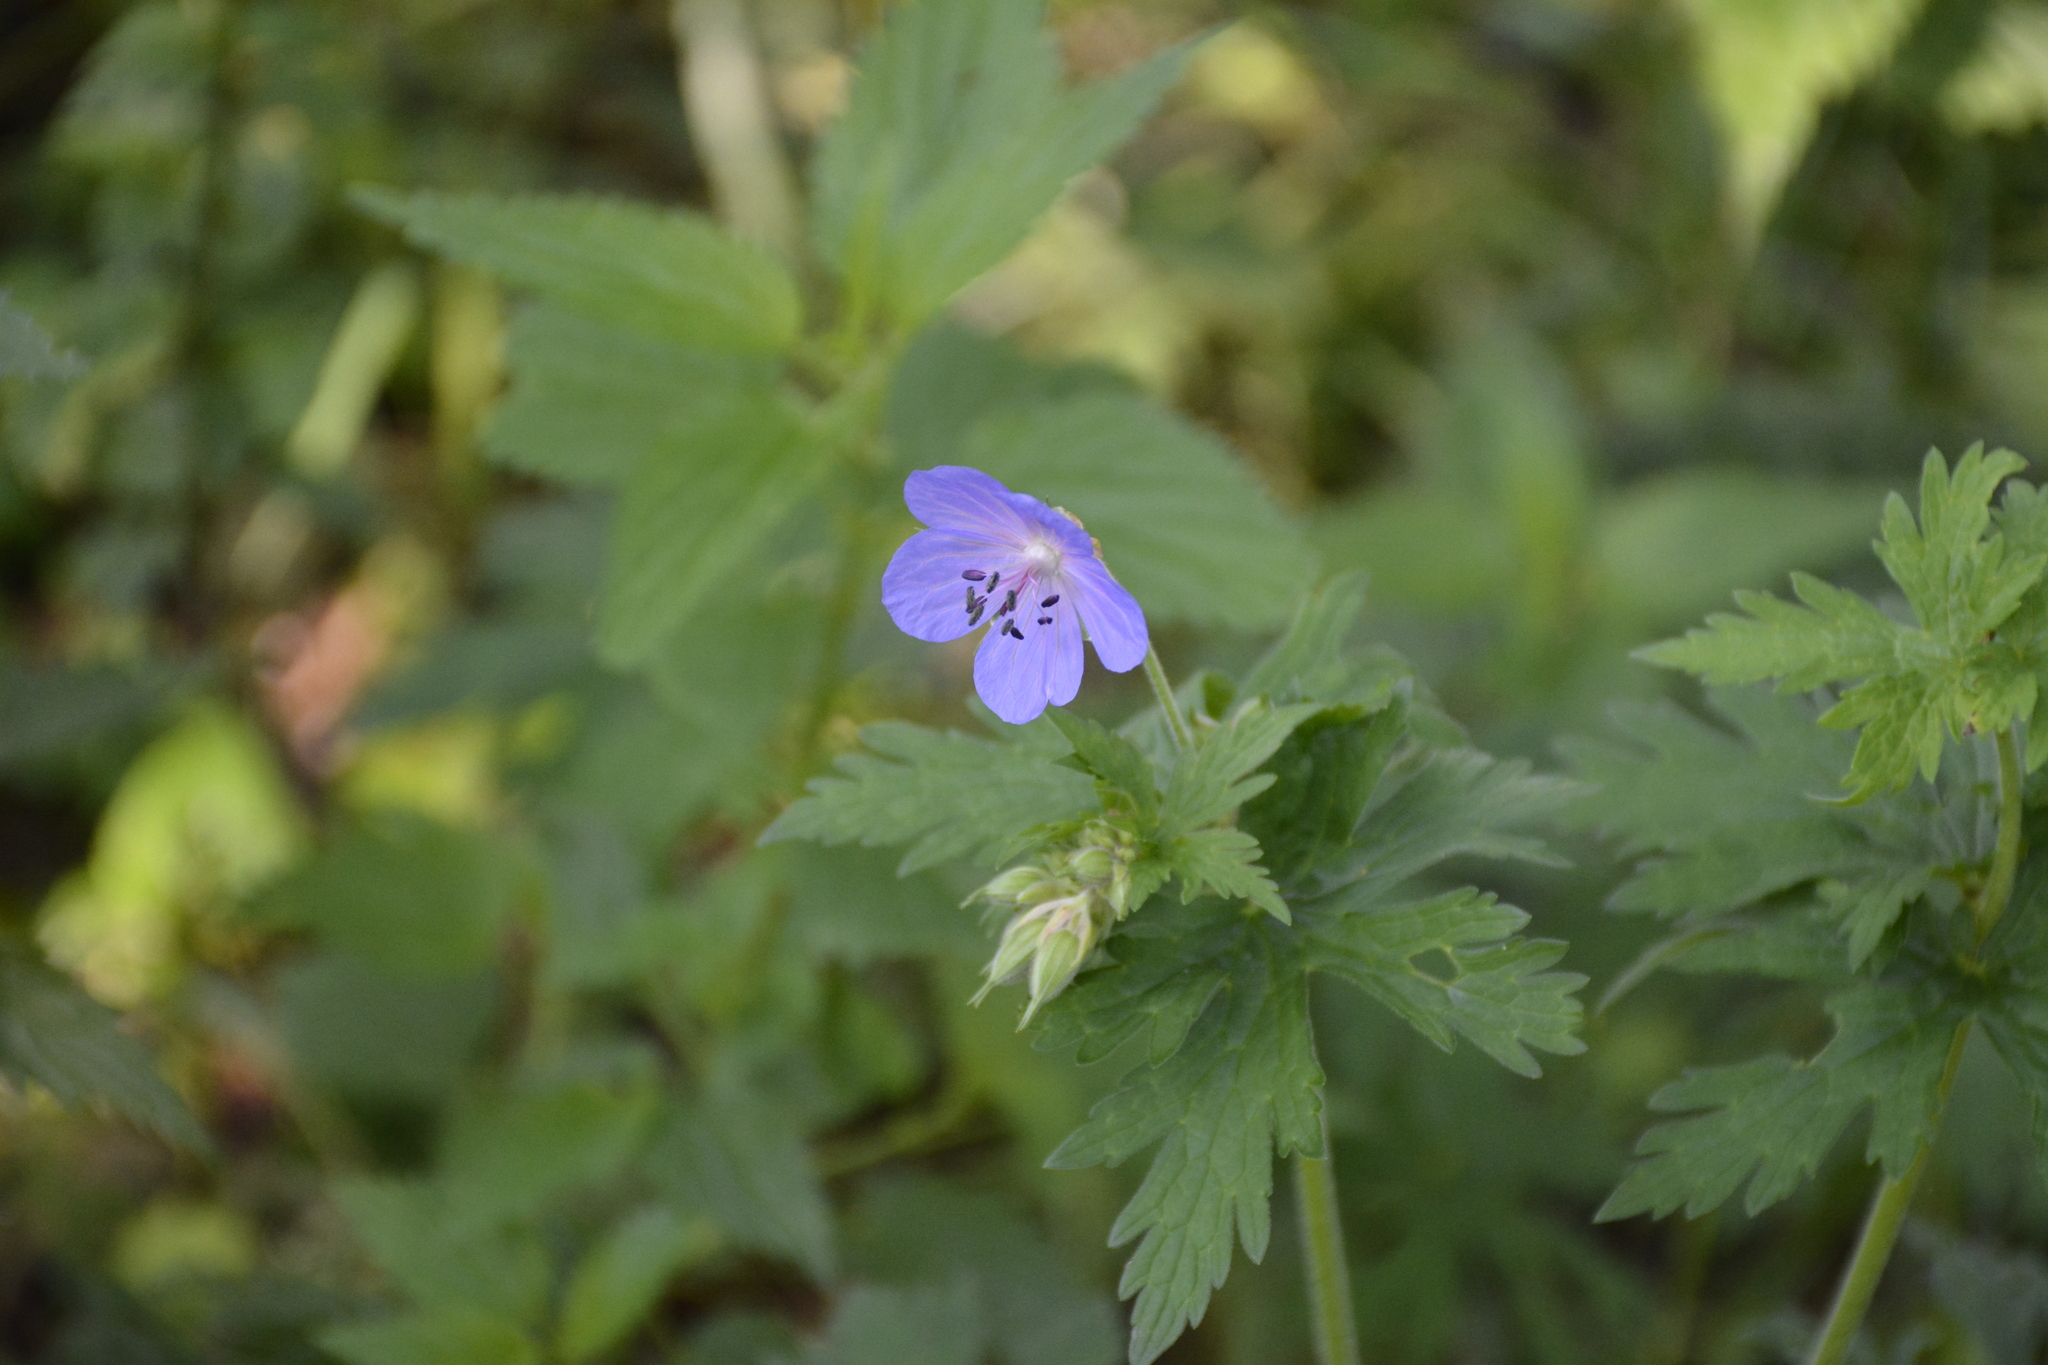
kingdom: Plantae
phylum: Tracheophyta
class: Magnoliopsida
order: Geraniales
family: Geraniaceae
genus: Geranium
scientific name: Geranium pratense
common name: Meadow crane's-bill
